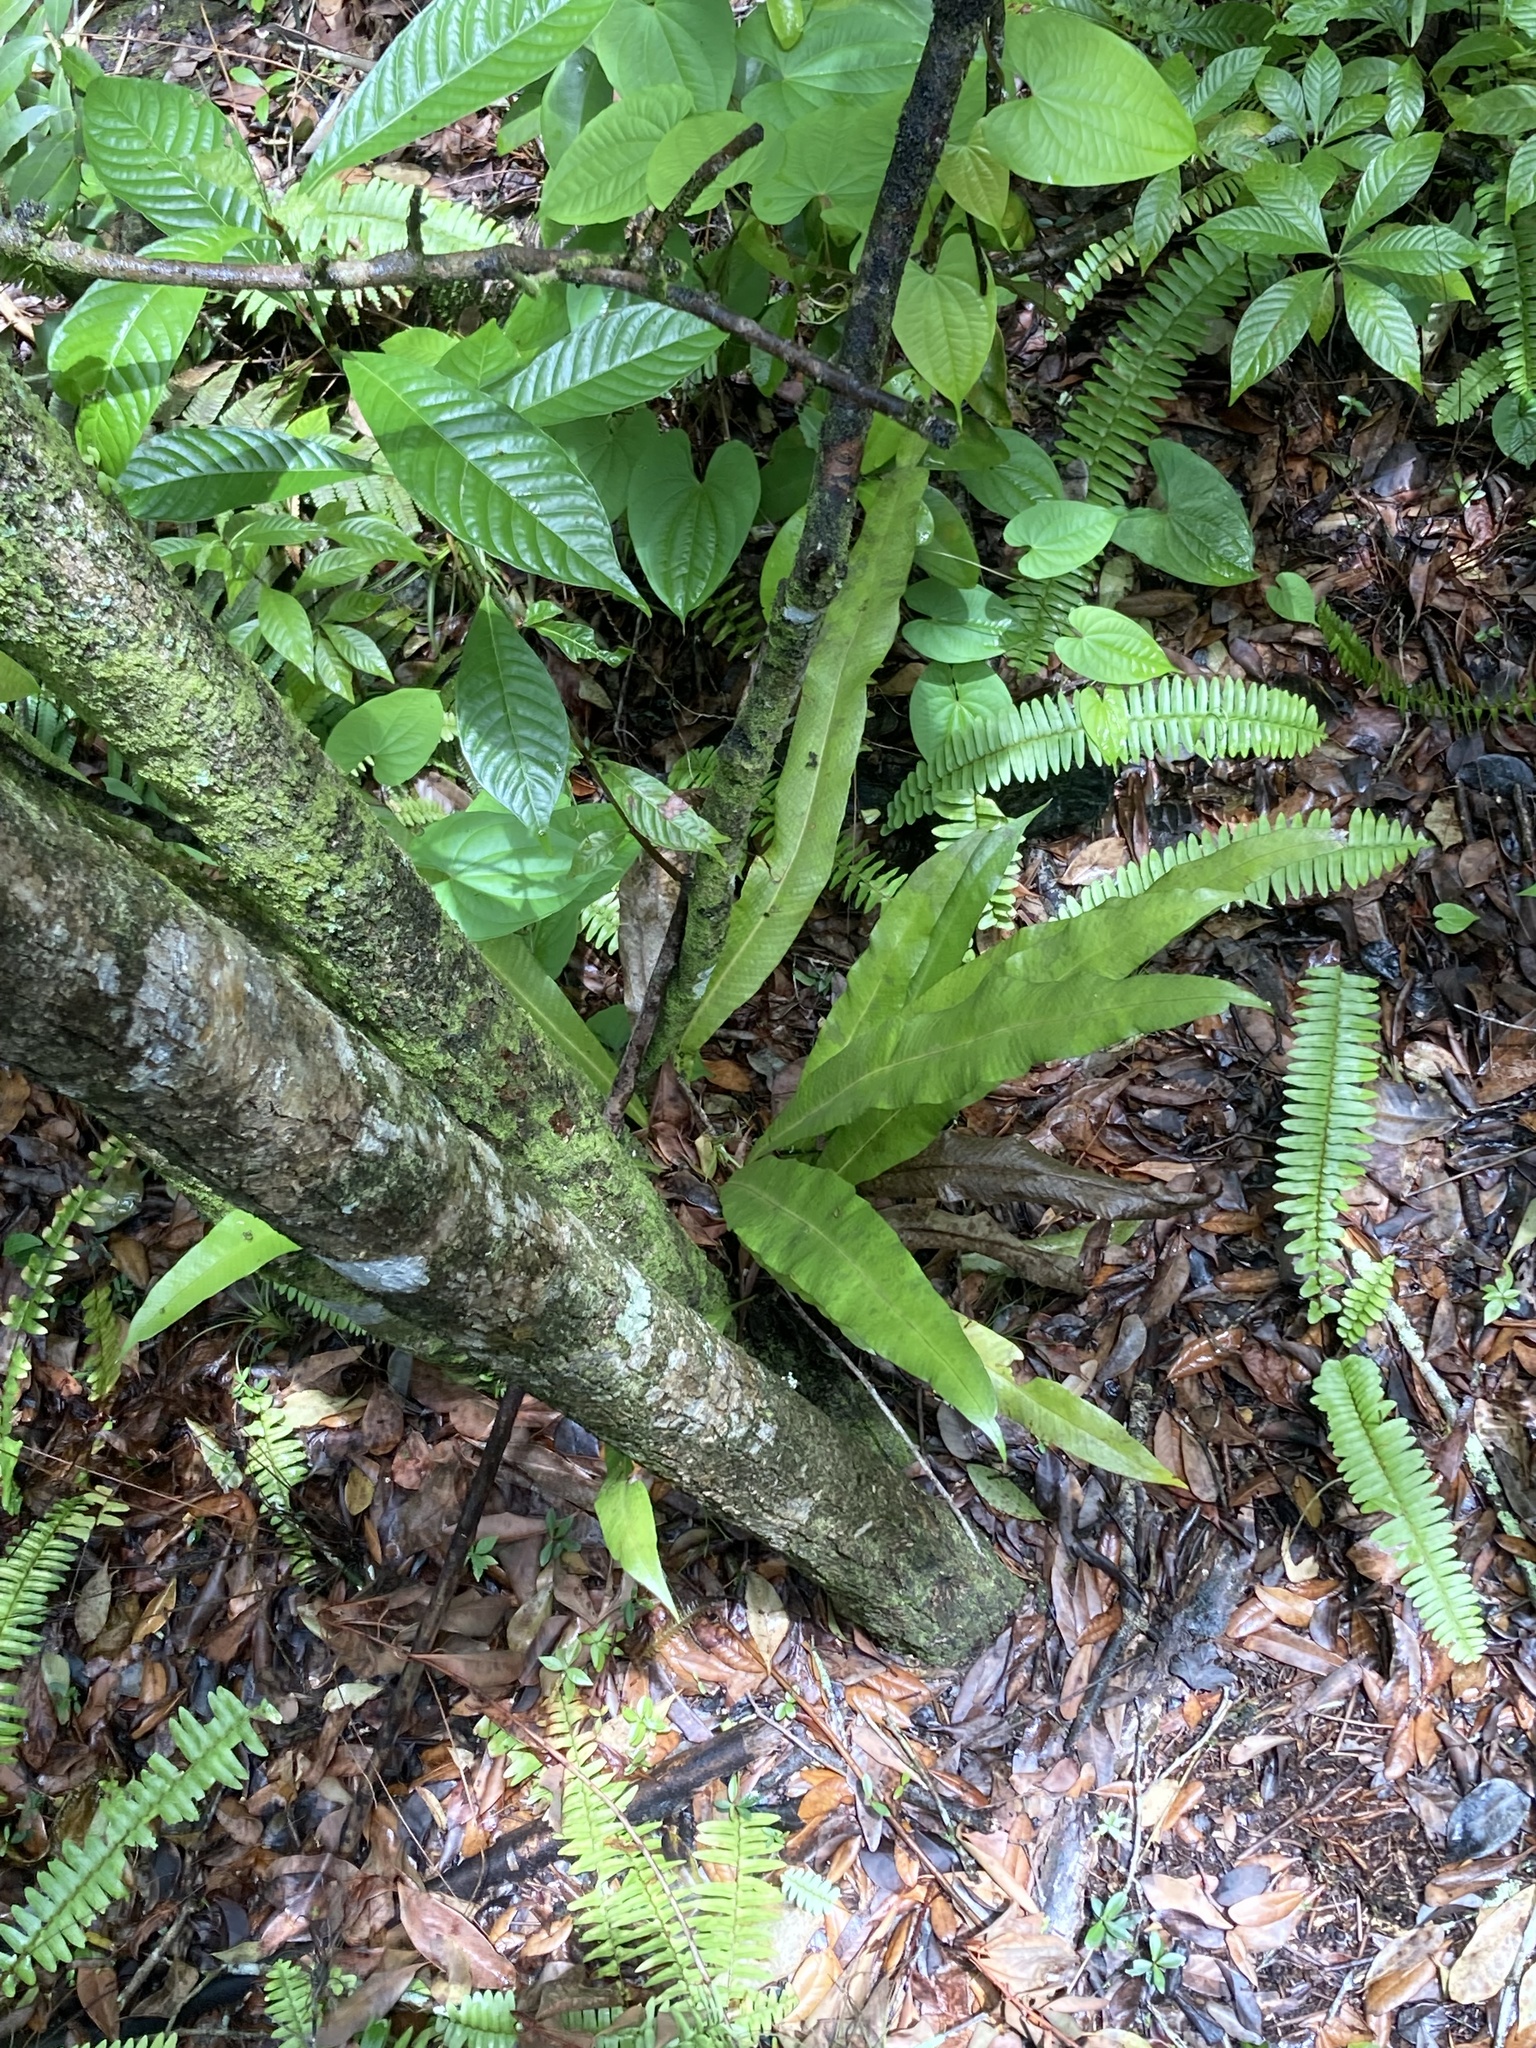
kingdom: Plantae
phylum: Tracheophyta
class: Polypodiopsida
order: Polypodiales
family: Polypodiaceae
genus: Campyloneurum
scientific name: Campyloneurum phyllitidis
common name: Cow-tongue fern
